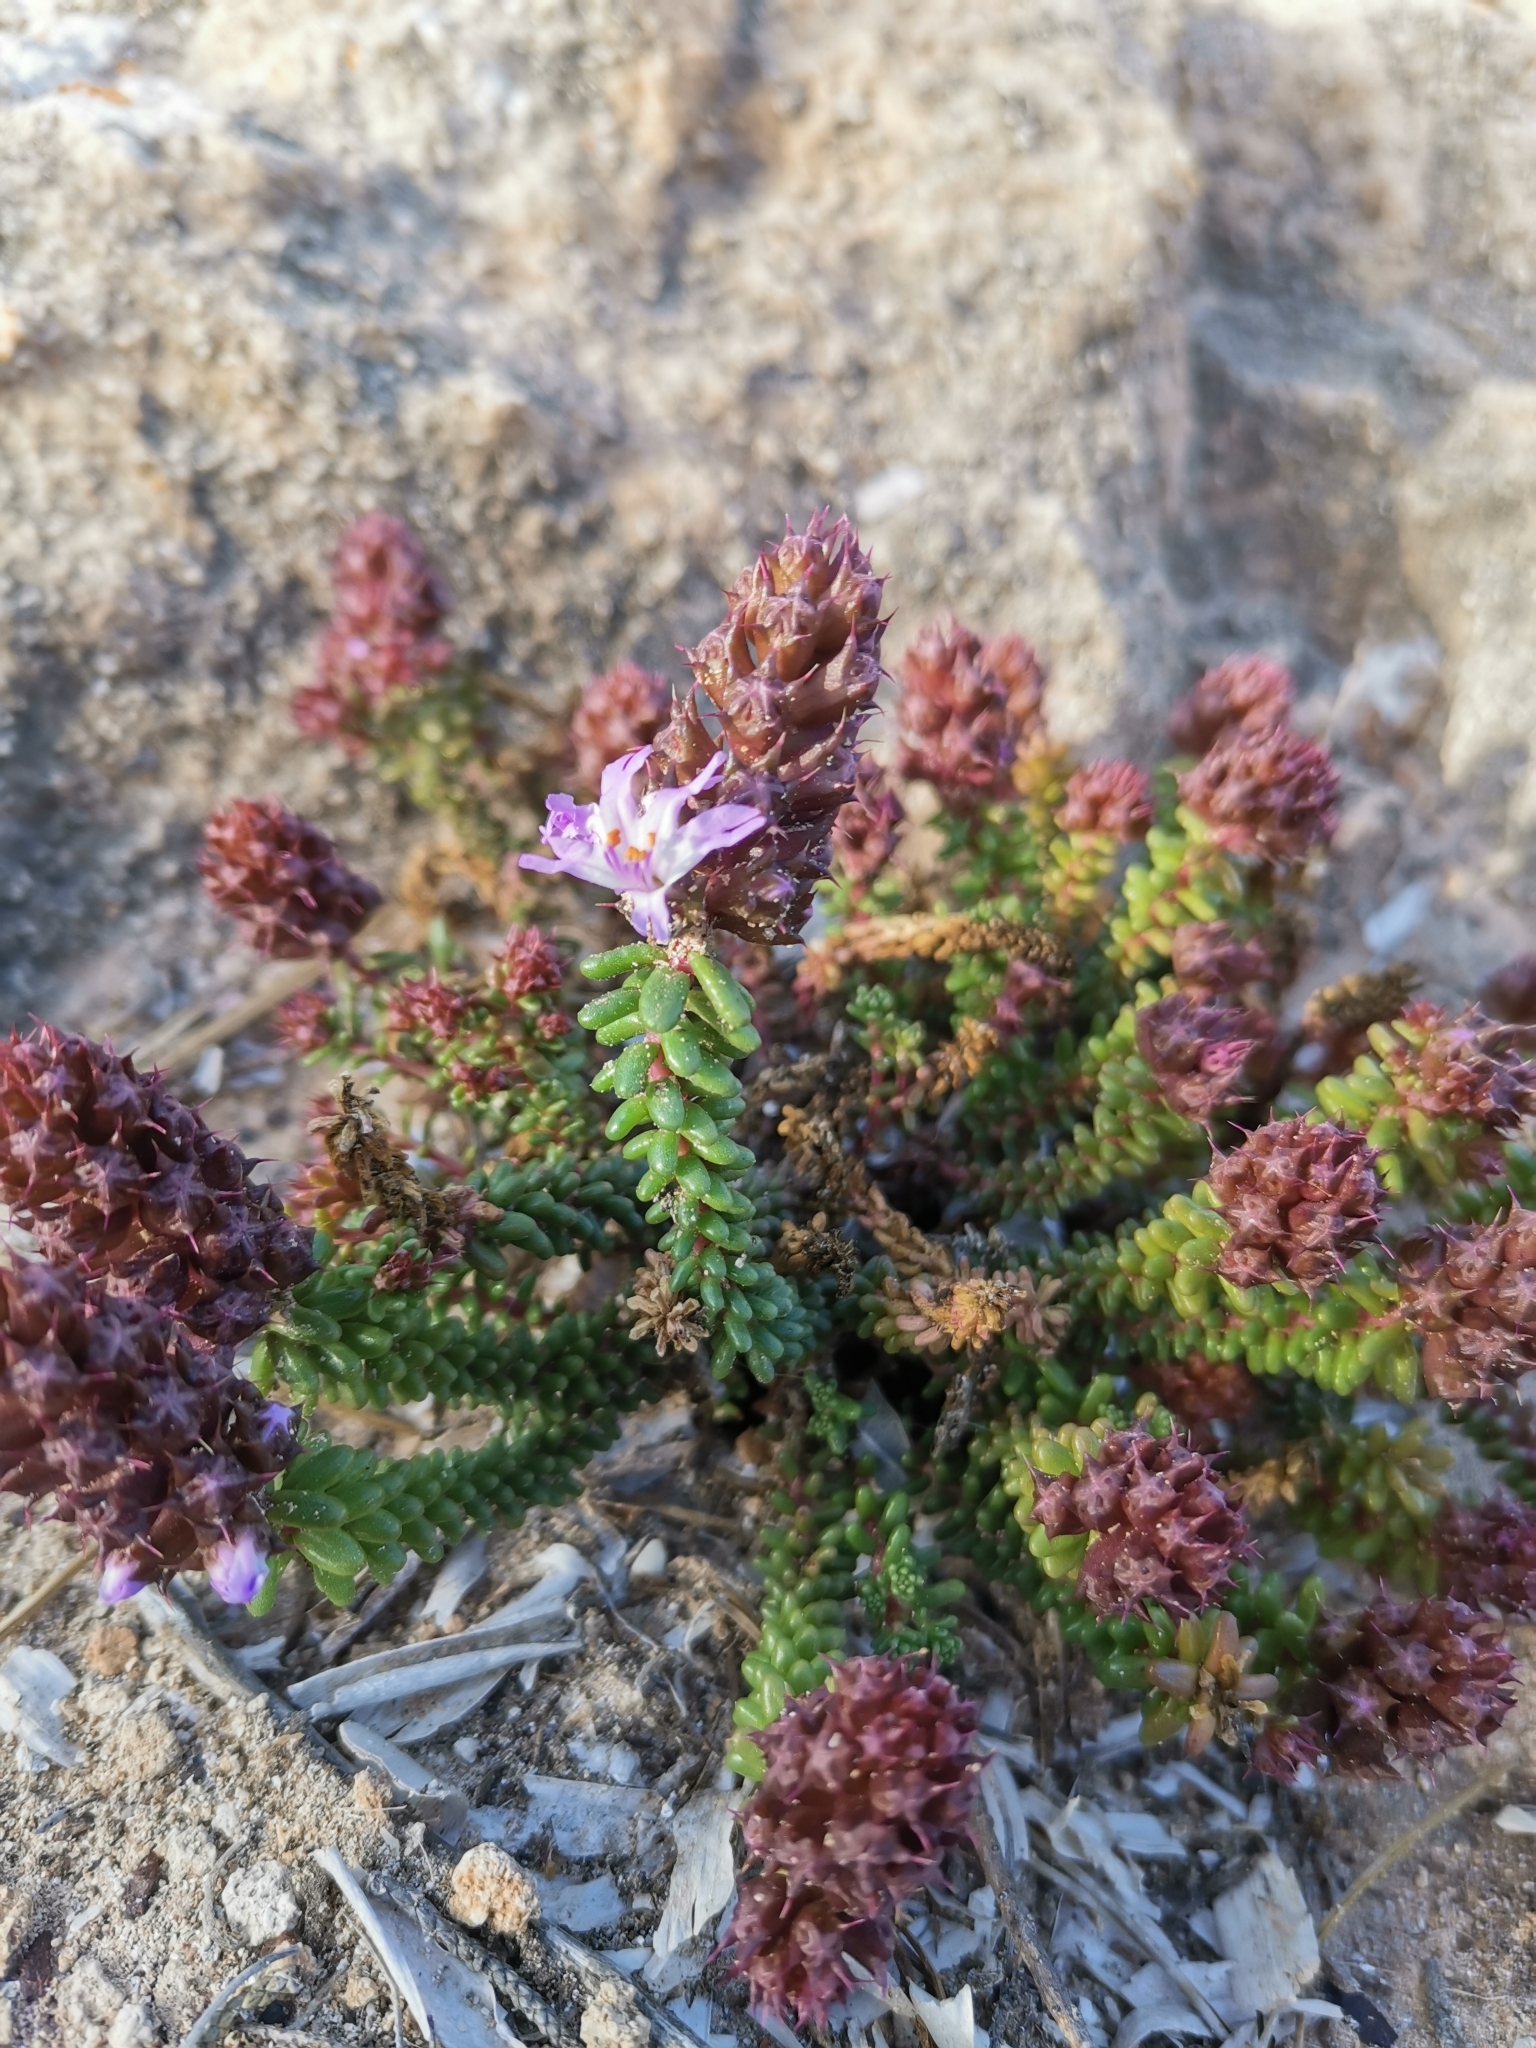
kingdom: Plantae
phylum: Tracheophyta
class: Magnoliopsida
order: Ericales
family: Primulaceae
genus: Coris
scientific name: Coris monspeliensis
